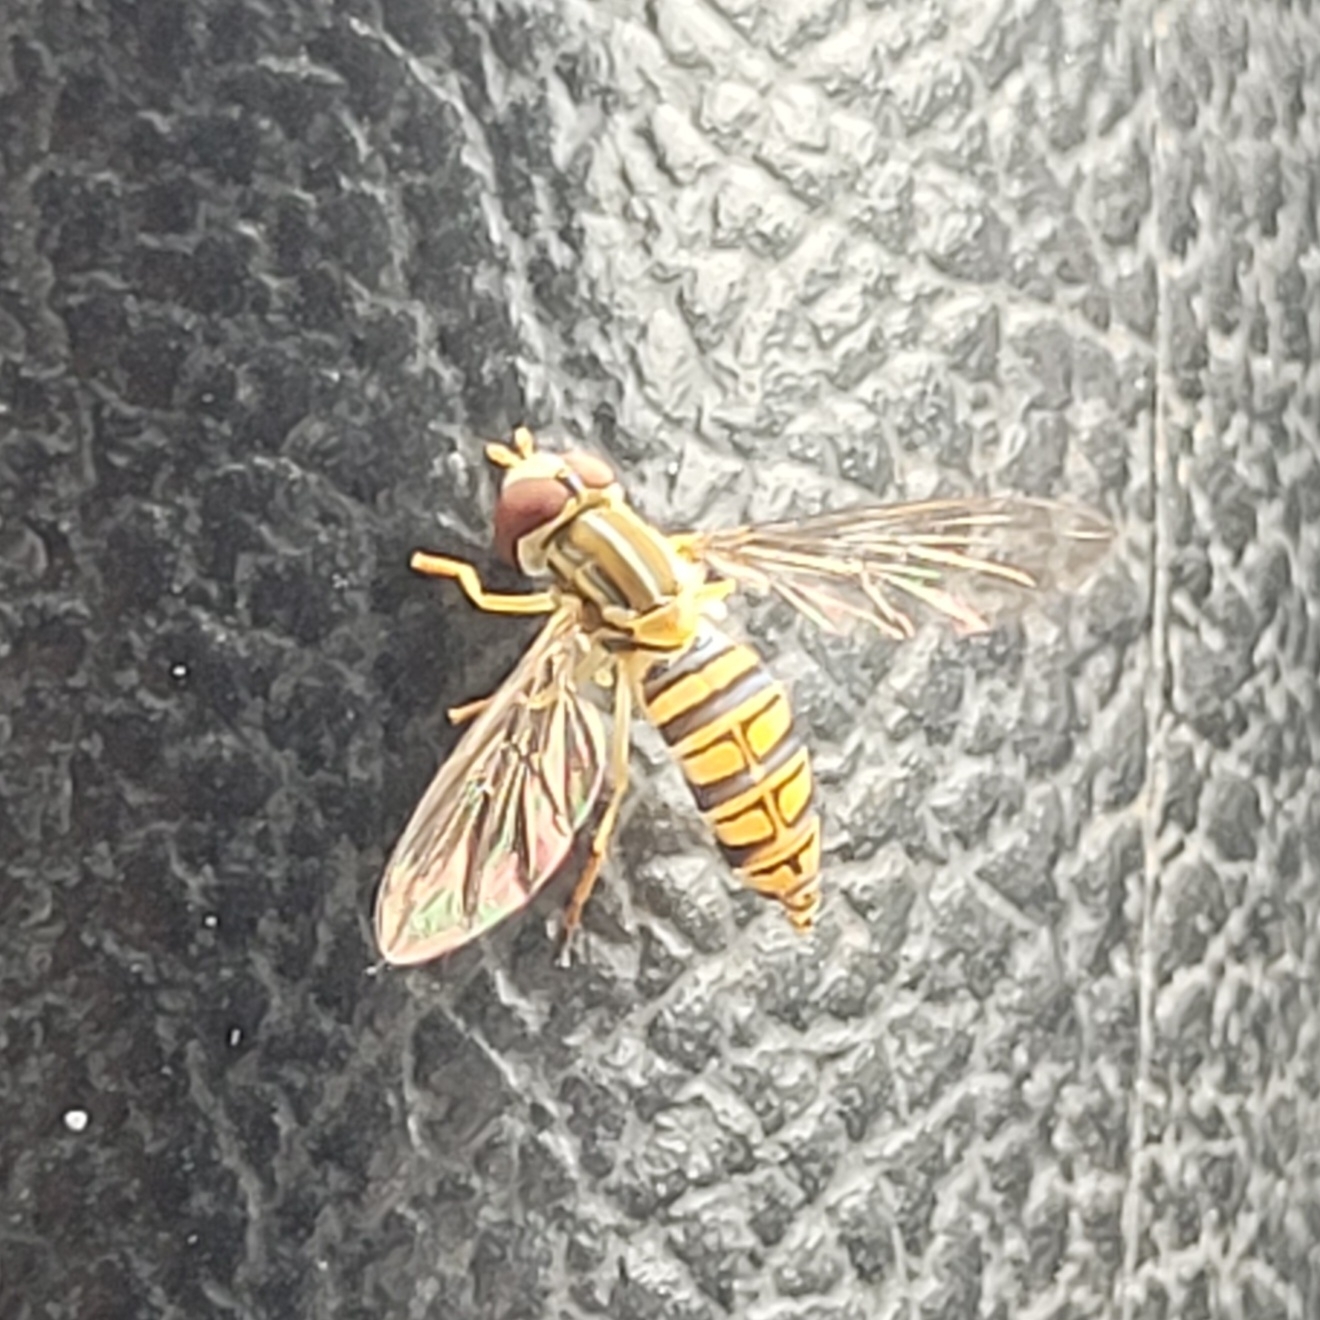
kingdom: Animalia
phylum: Arthropoda
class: Insecta
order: Diptera
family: Syrphidae
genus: Toxomerus
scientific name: Toxomerus politus
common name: Maize calligrapher
